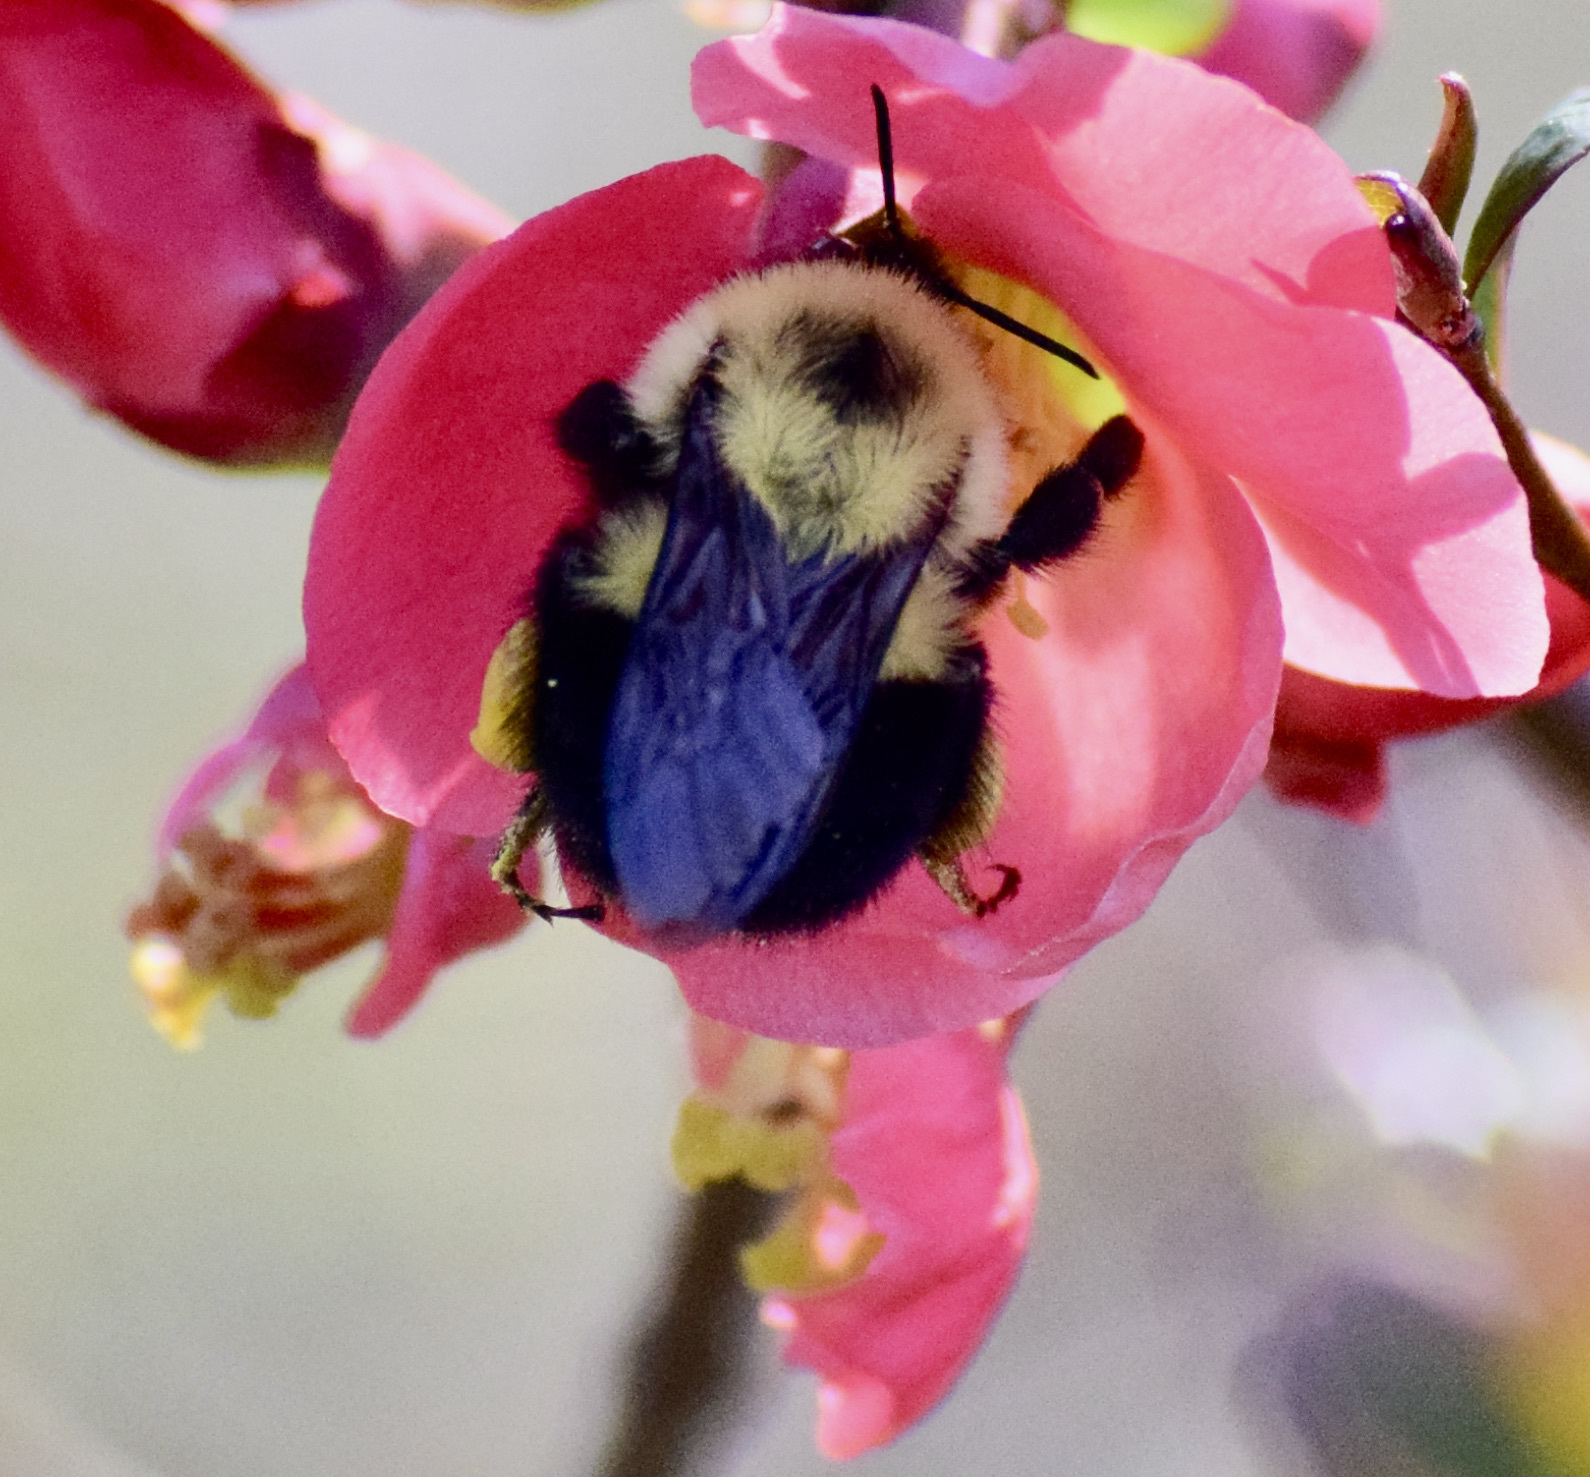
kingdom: Animalia
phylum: Arthropoda
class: Insecta
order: Hymenoptera
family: Apidae
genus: Bombus
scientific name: Bombus bimaculatus
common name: Two-spotted bumble bee
